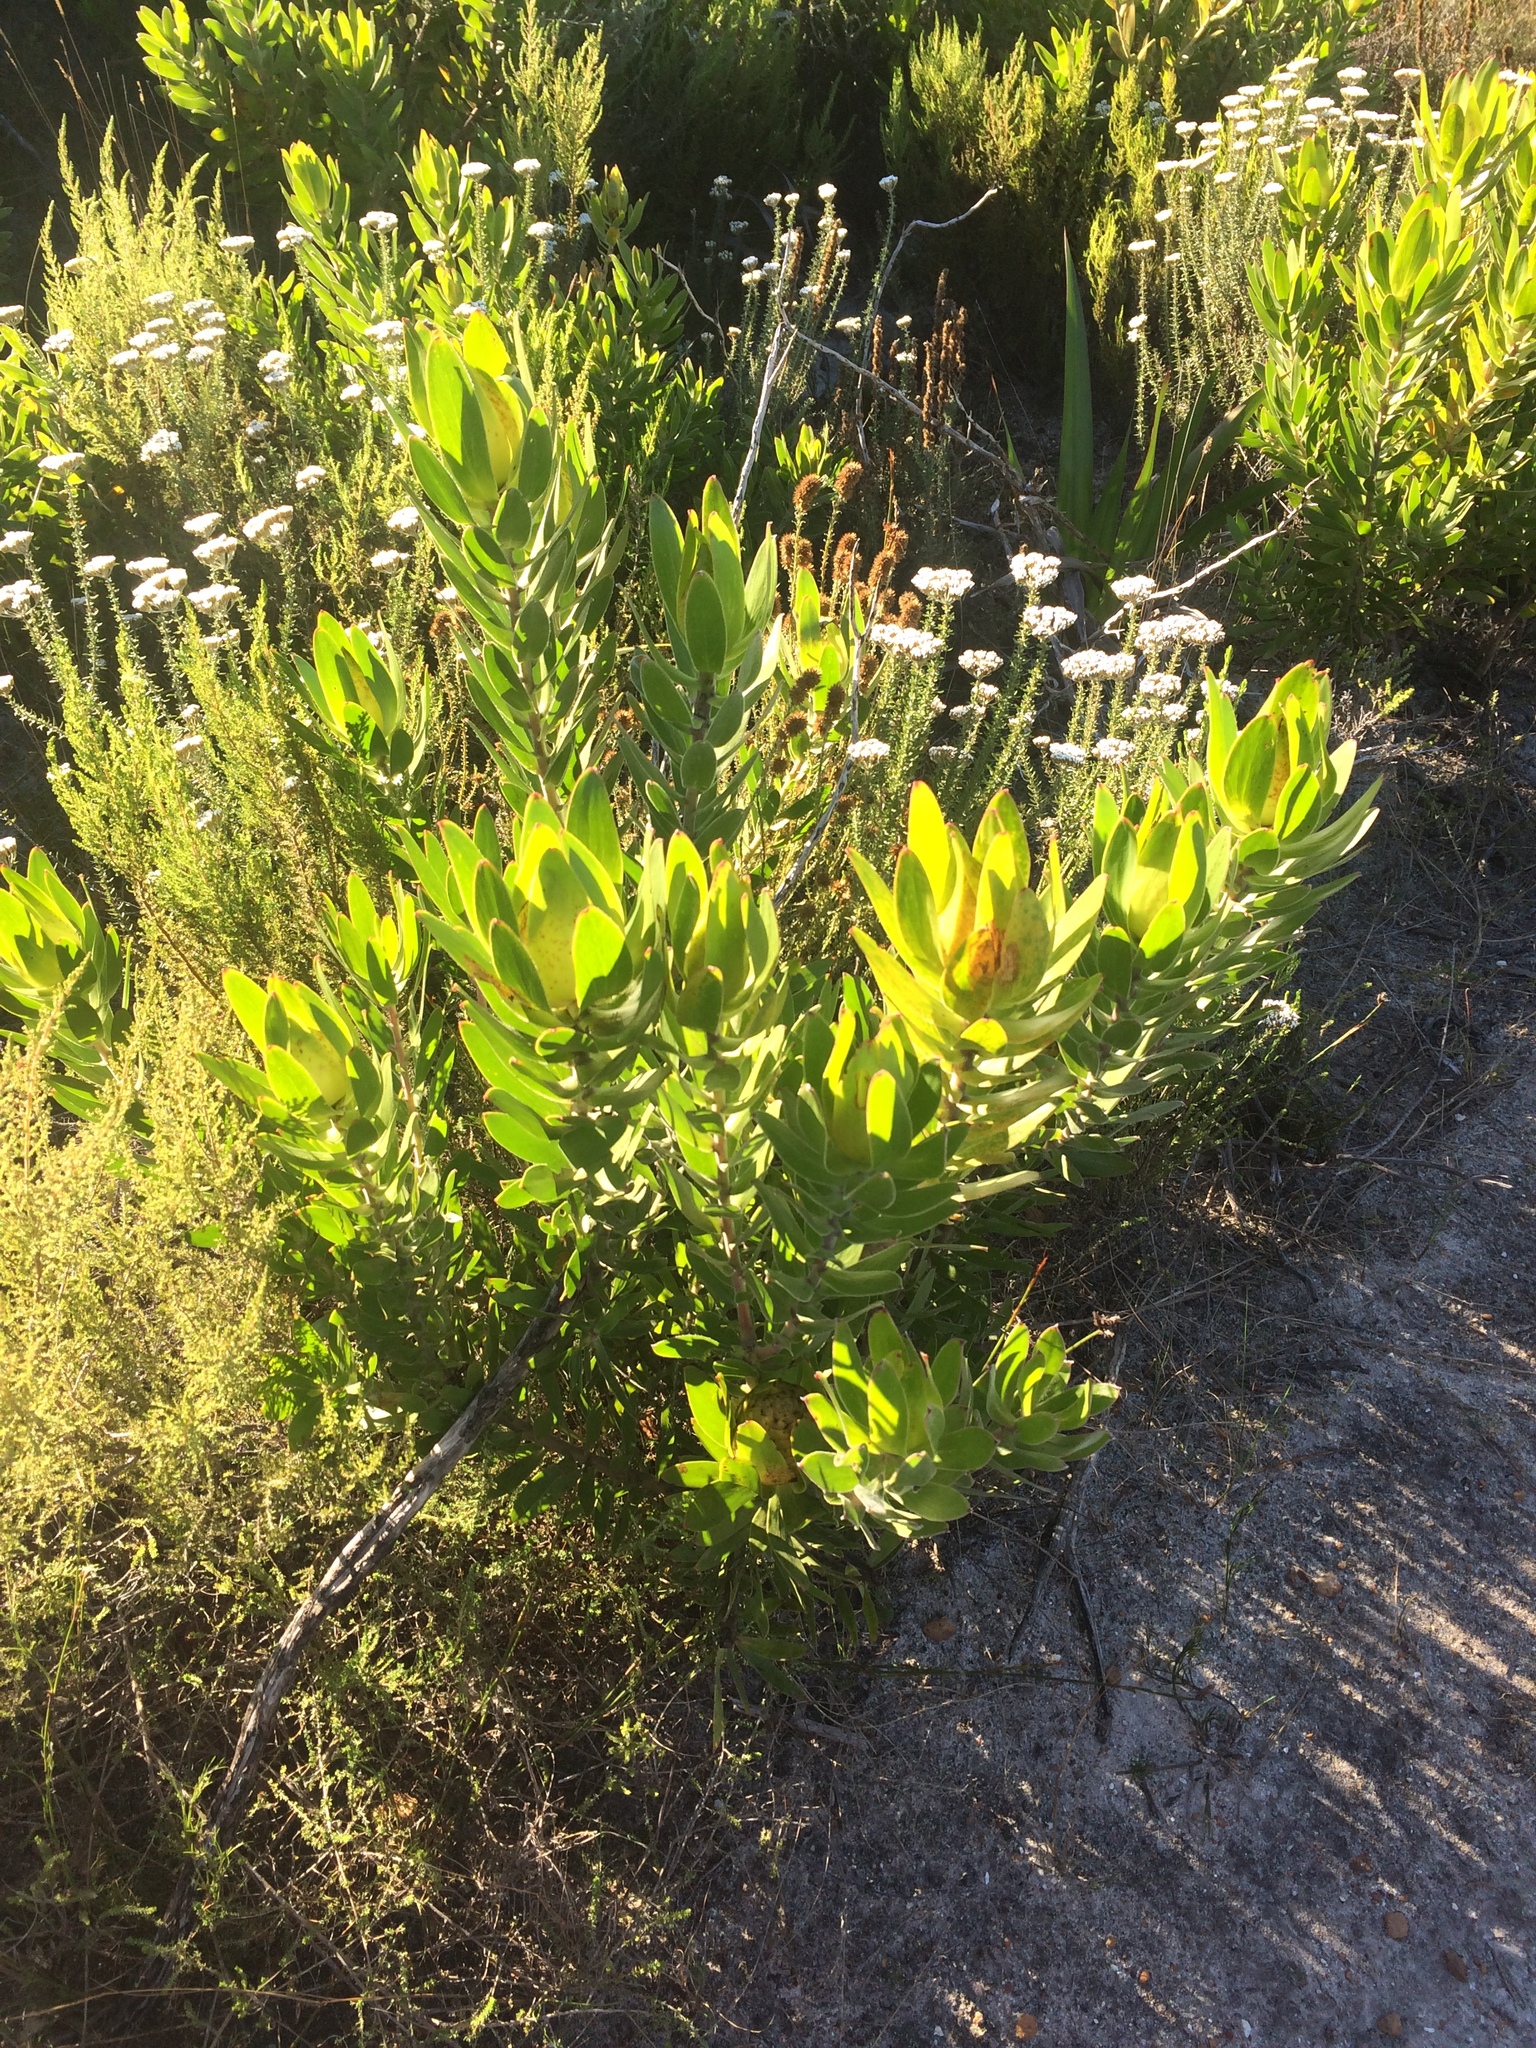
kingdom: Plantae
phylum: Tracheophyta
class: Magnoliopsida
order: Proteales
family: Proteaceae
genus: Leucadendron
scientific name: Leucadendron laureolum
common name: Golden sunshinebush
